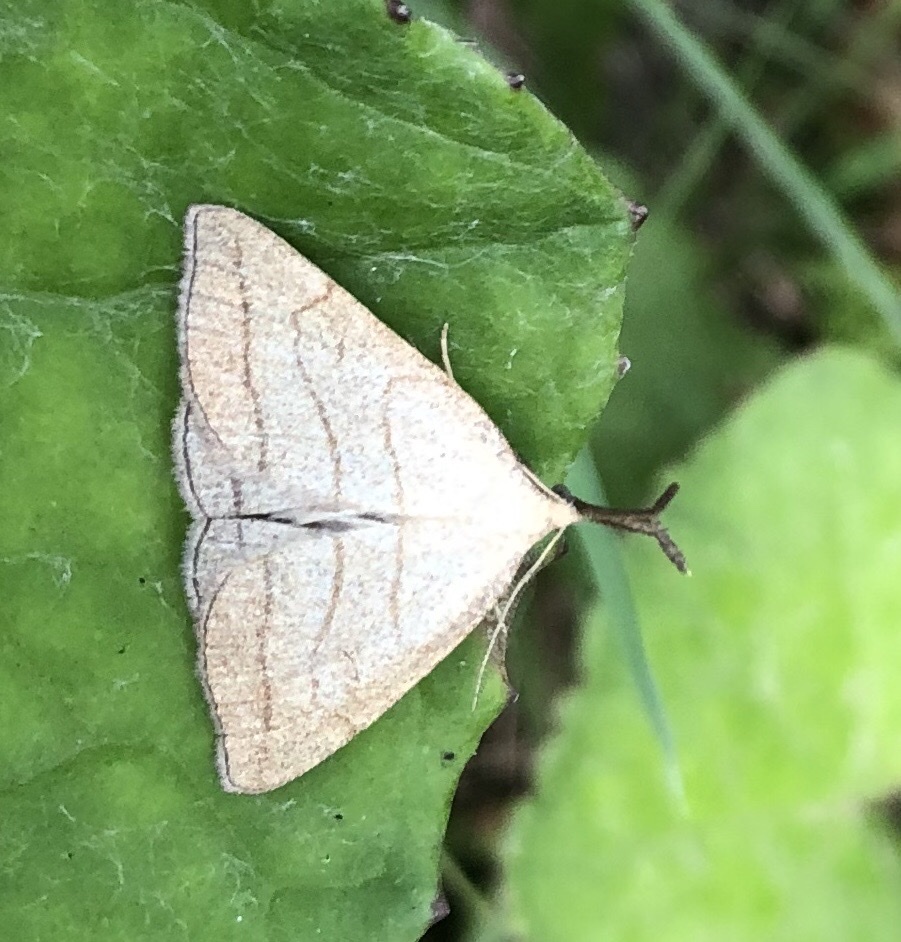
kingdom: Animalia
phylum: Arthropoda
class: Insecta
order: Lepidoptera
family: Erebidae
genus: Polypogon
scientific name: Polypogon tentacularia
